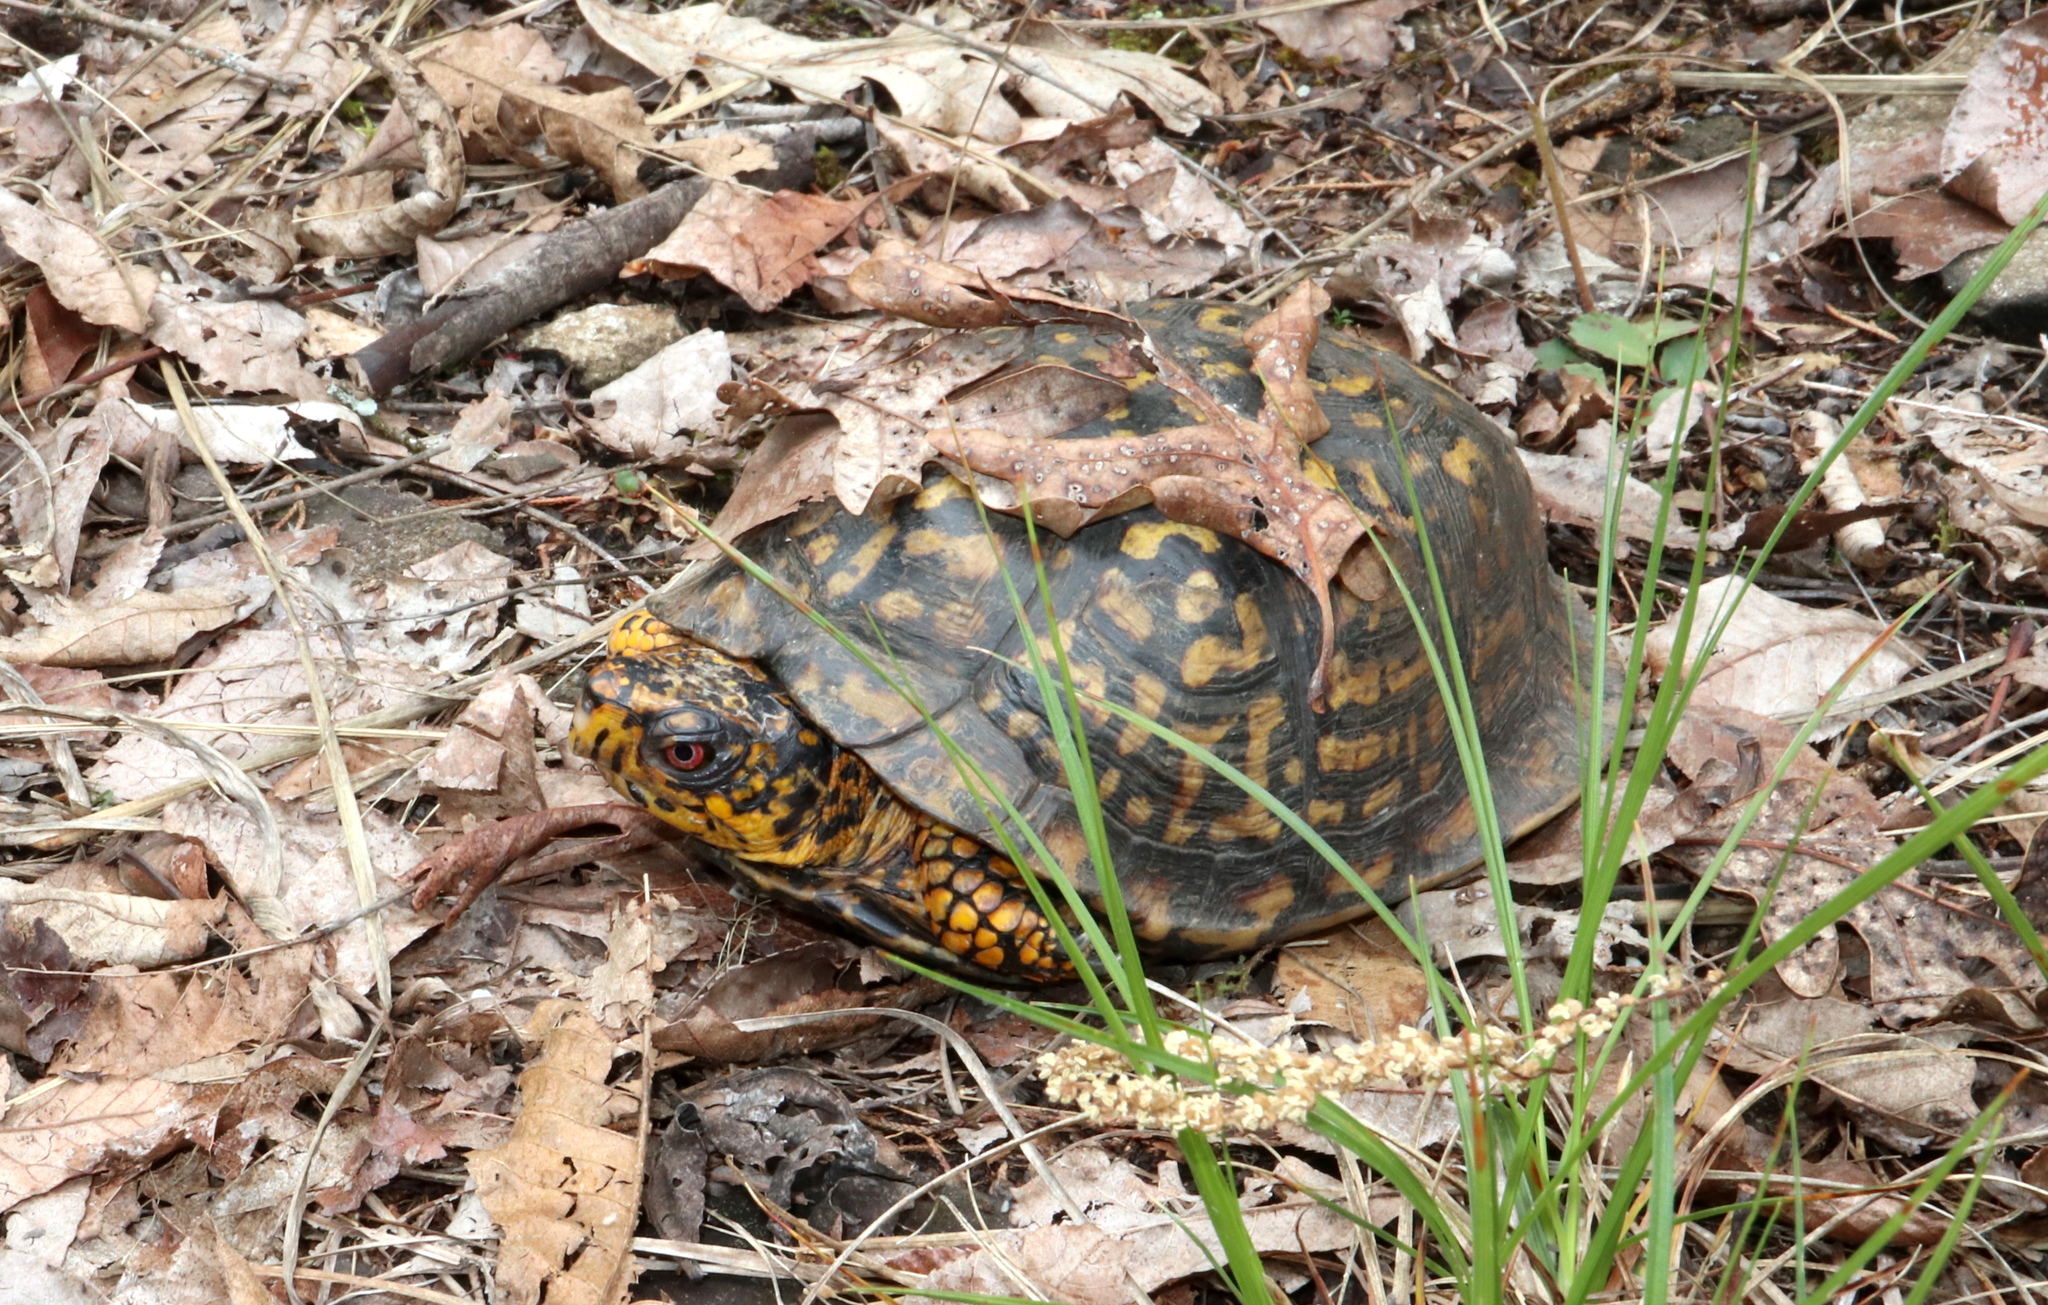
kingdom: Animalia
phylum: Chordata
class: Testudines
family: Emydidae
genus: Terrapene
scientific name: Terrapene carolina
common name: Common box turtle
